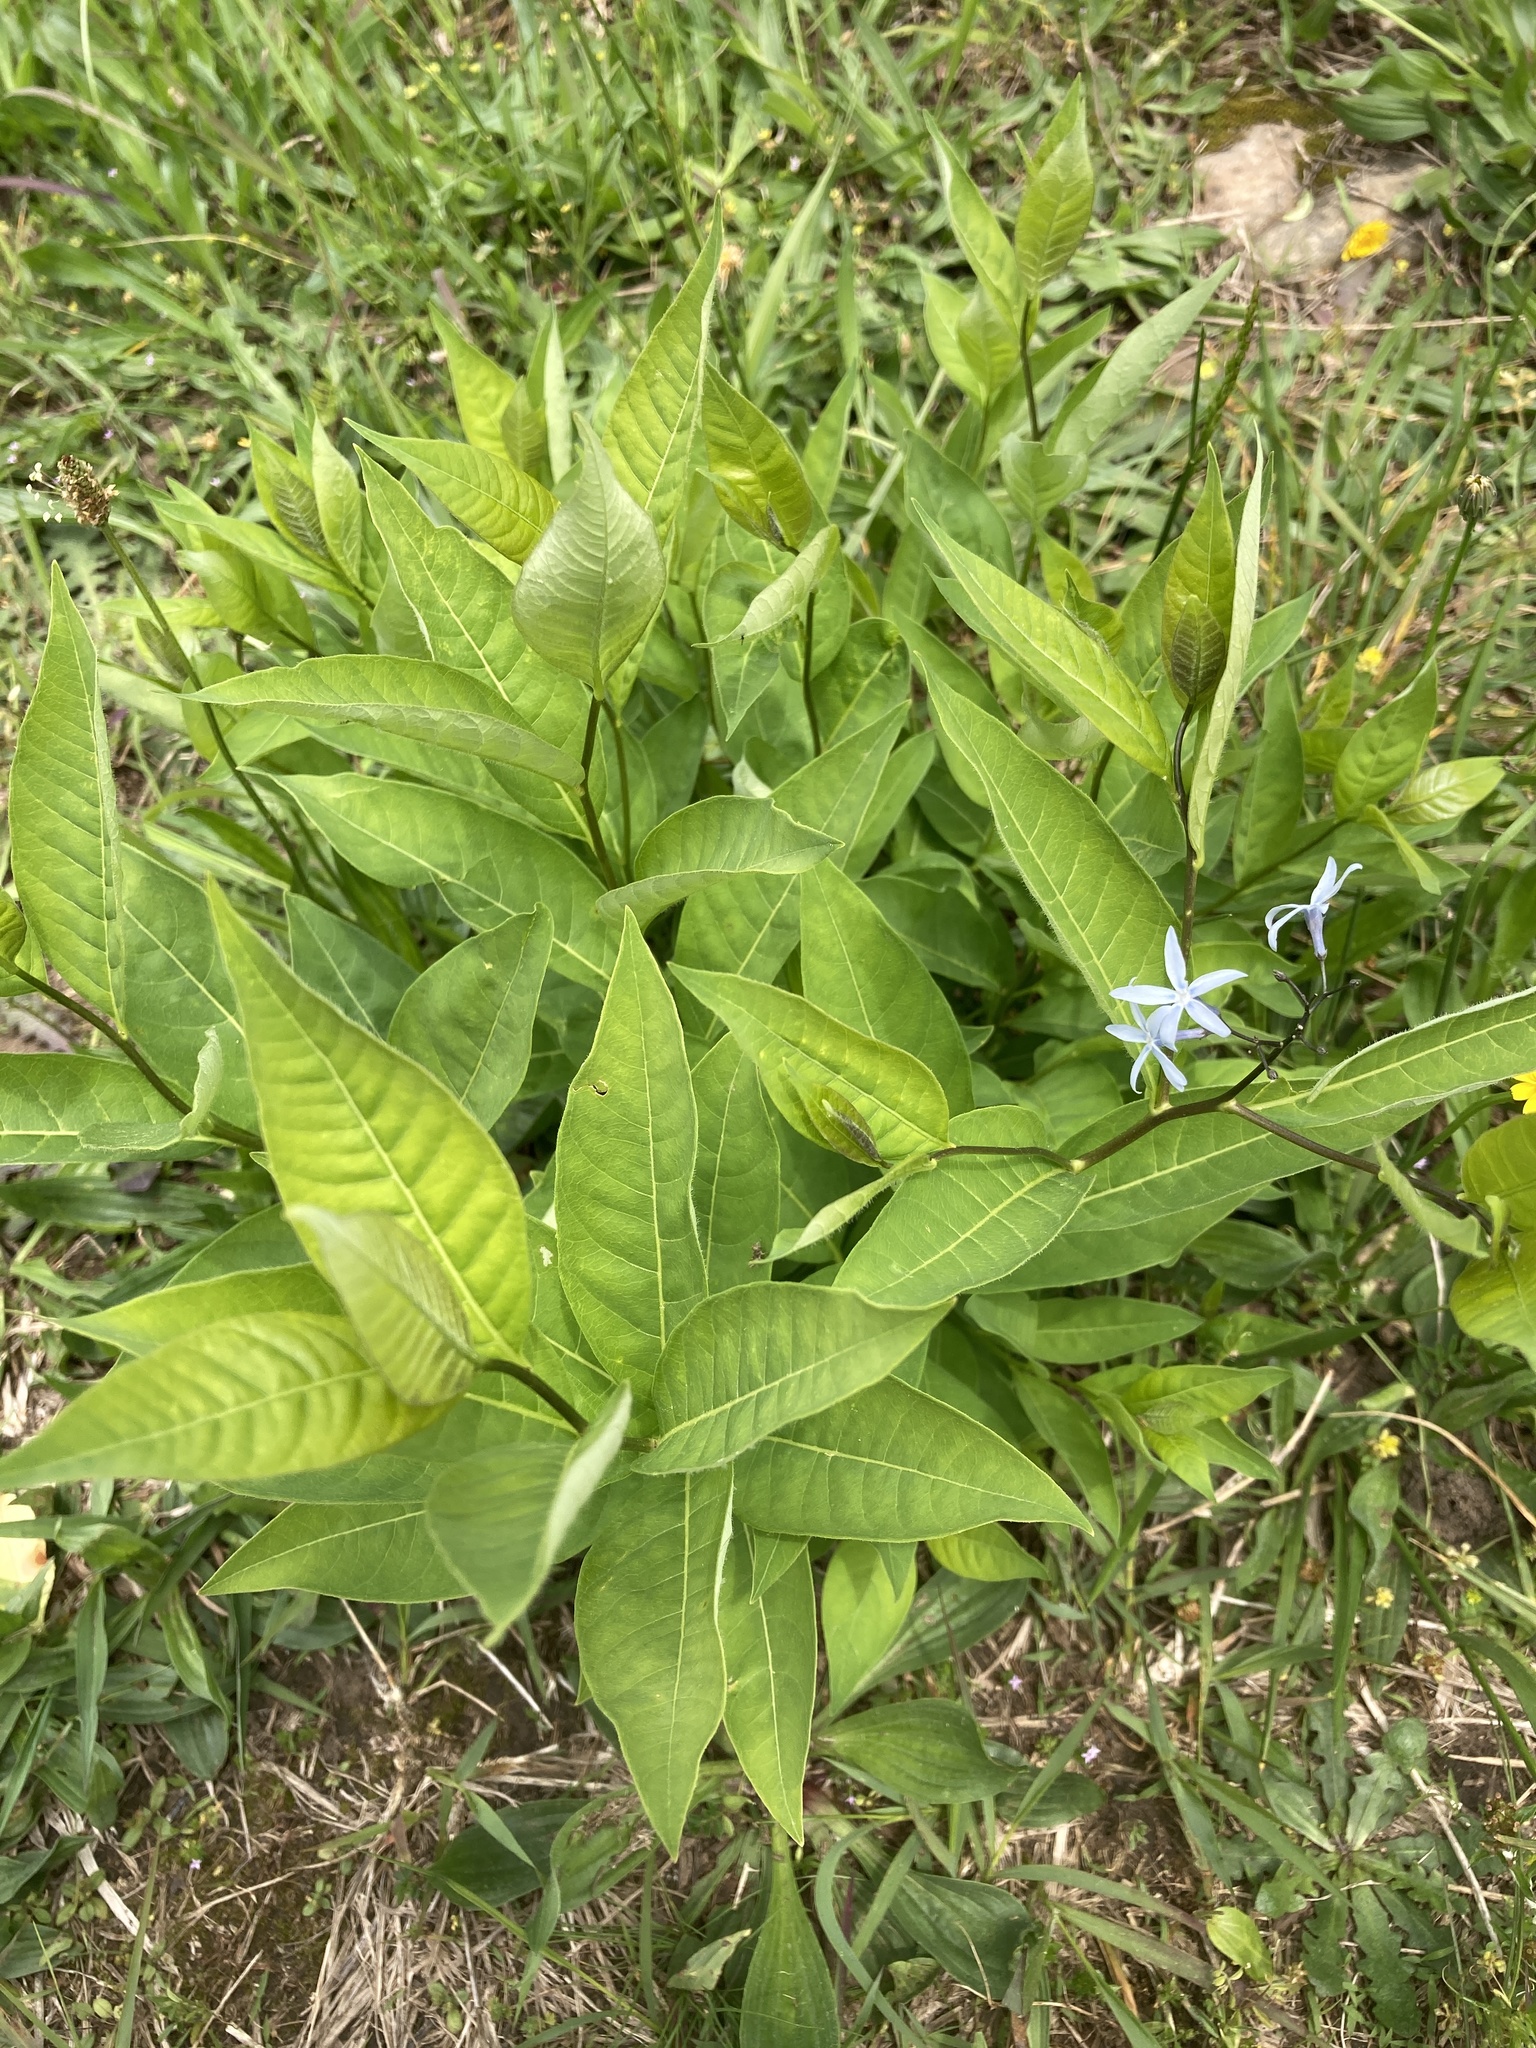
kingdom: Plantae
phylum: Tracheophyta
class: Magnoliopsida
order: Gentianales
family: Apocynaceae
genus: Amsonia
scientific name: Amsonia tabernaemontana
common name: Texas-star
